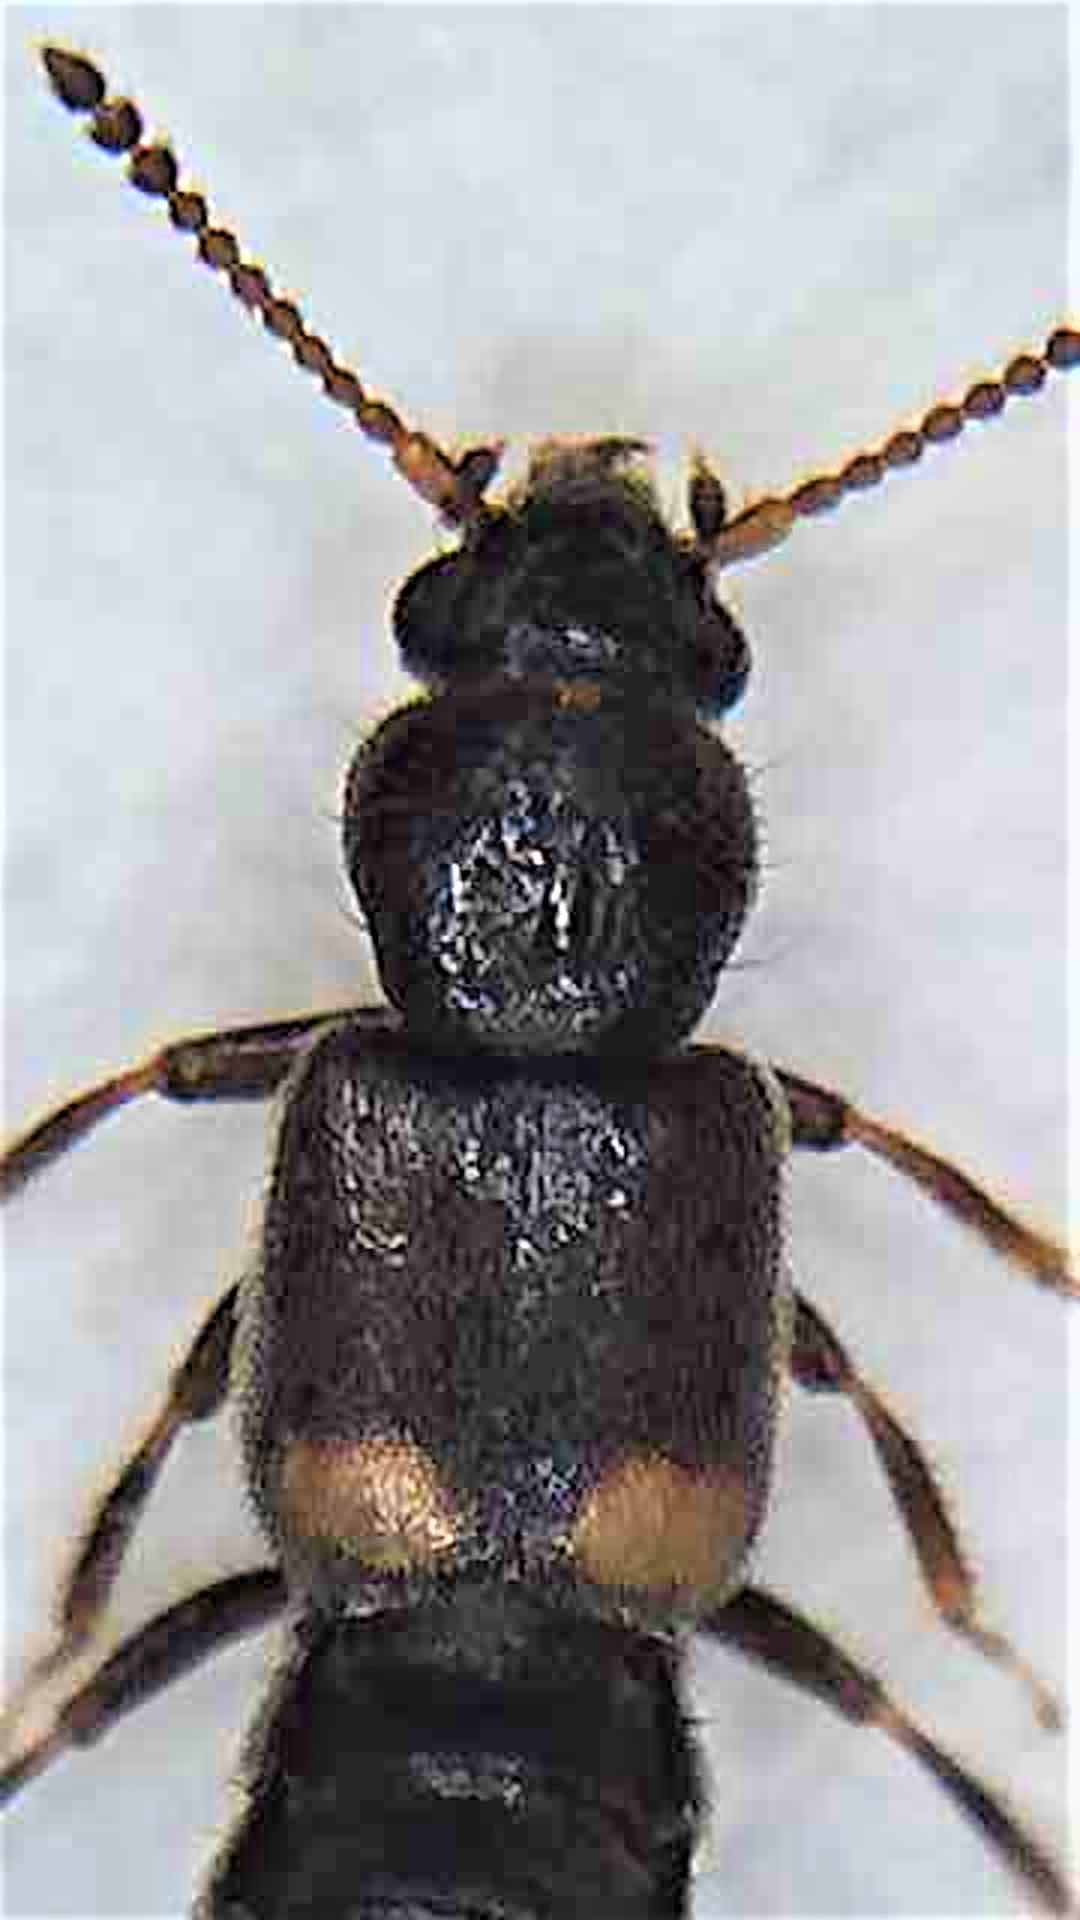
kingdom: Animalia
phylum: Arthropoda
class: Insecta
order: Coleoptera
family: Staphylinidae
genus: Blediotrogus
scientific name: Blediotrogus guttiger
